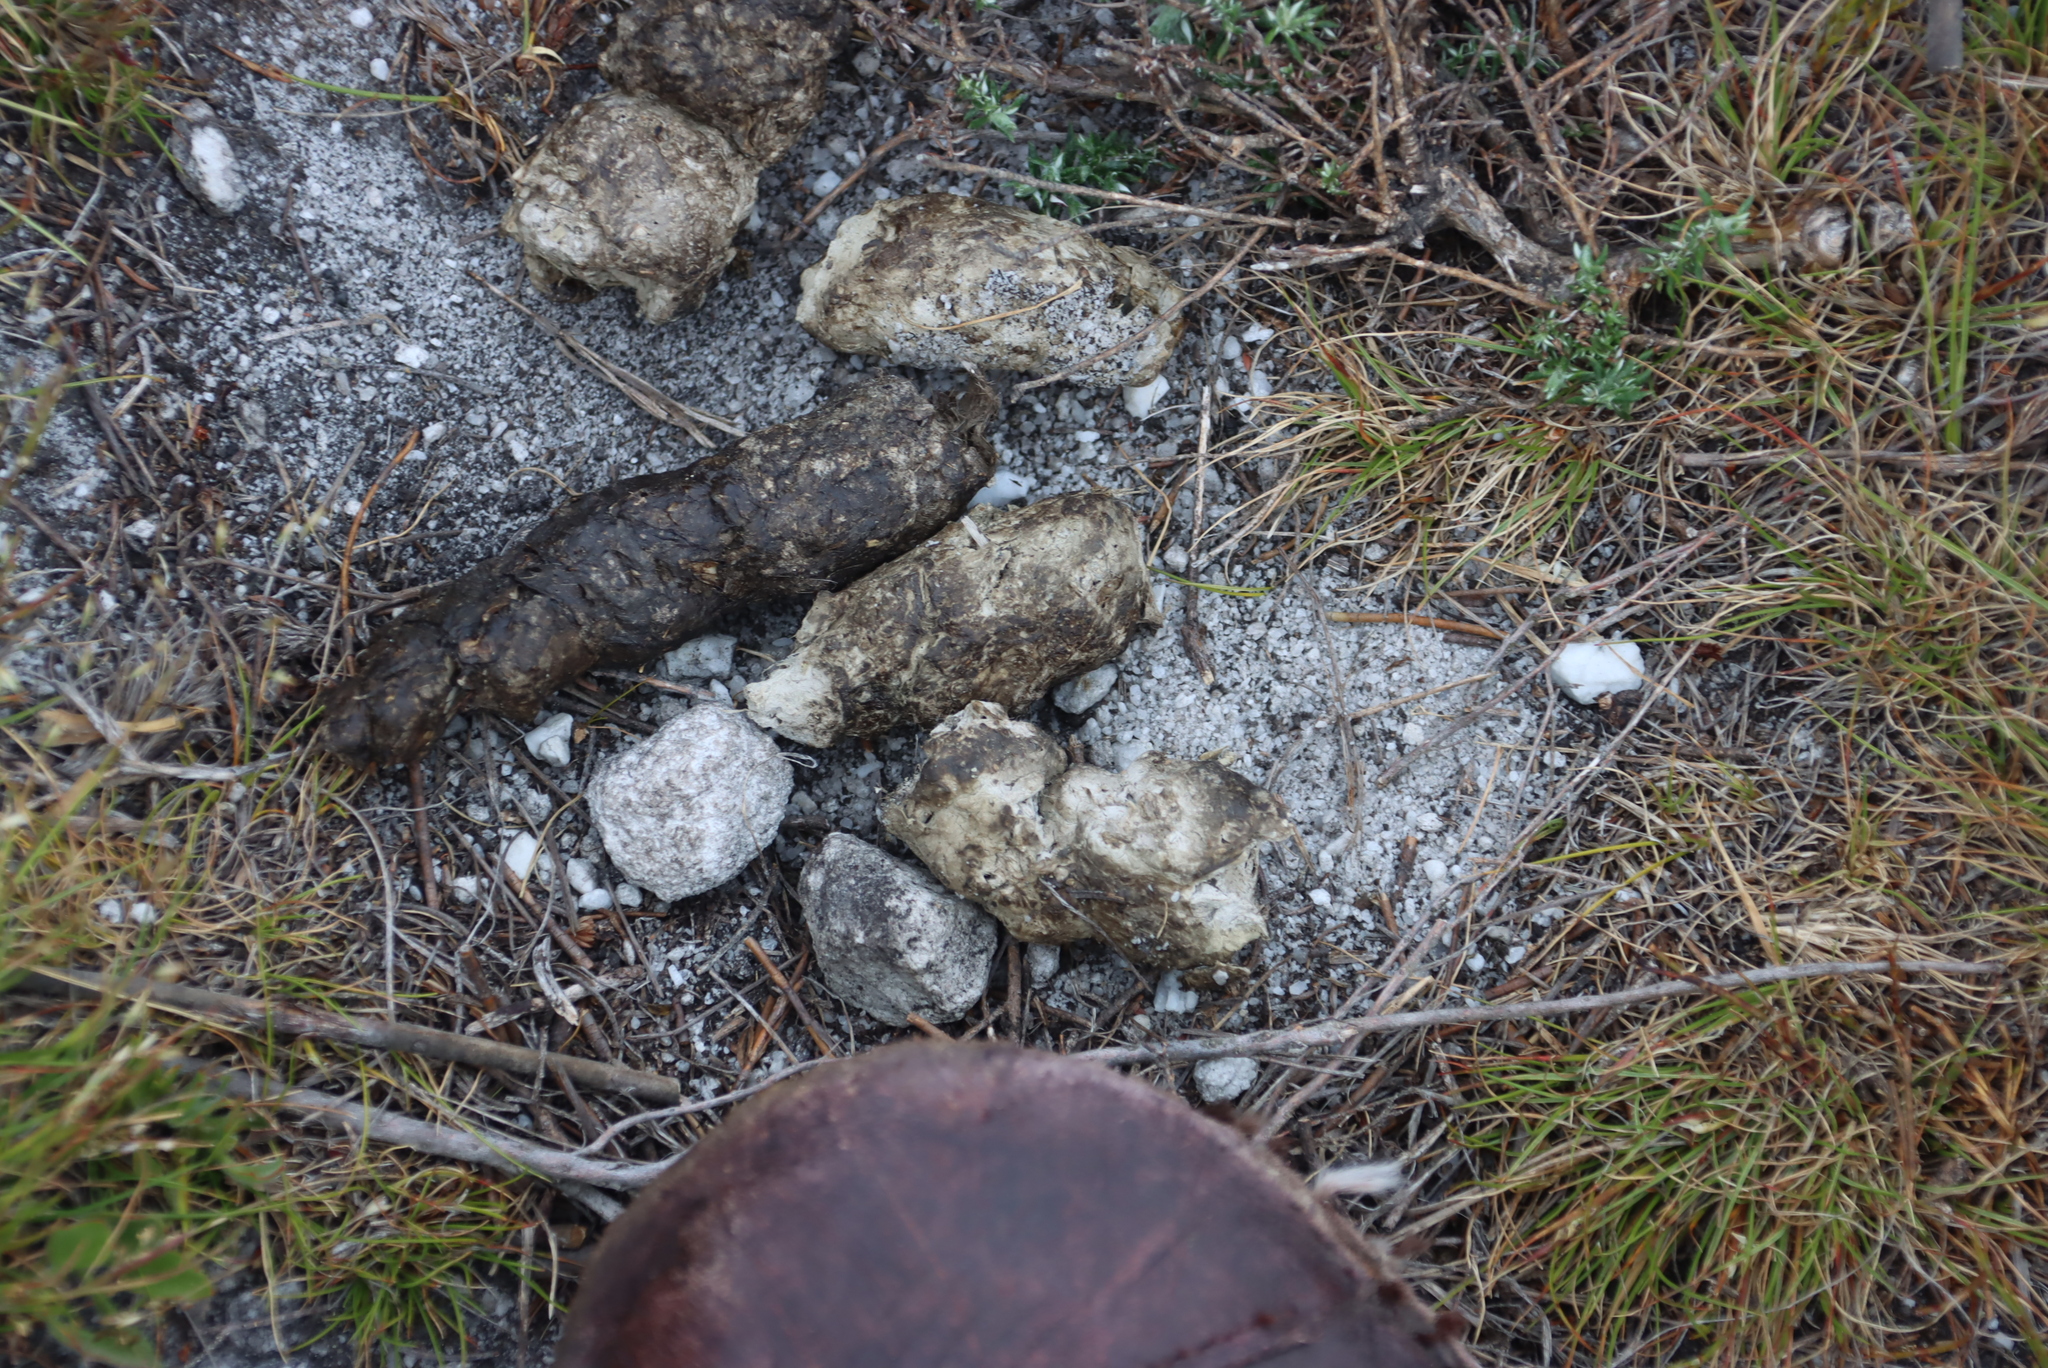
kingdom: Animalia
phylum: Chordata
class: Mammalia
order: Carnivora
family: Felidae
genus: Caracal
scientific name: Caracal caracal
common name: Caracal
